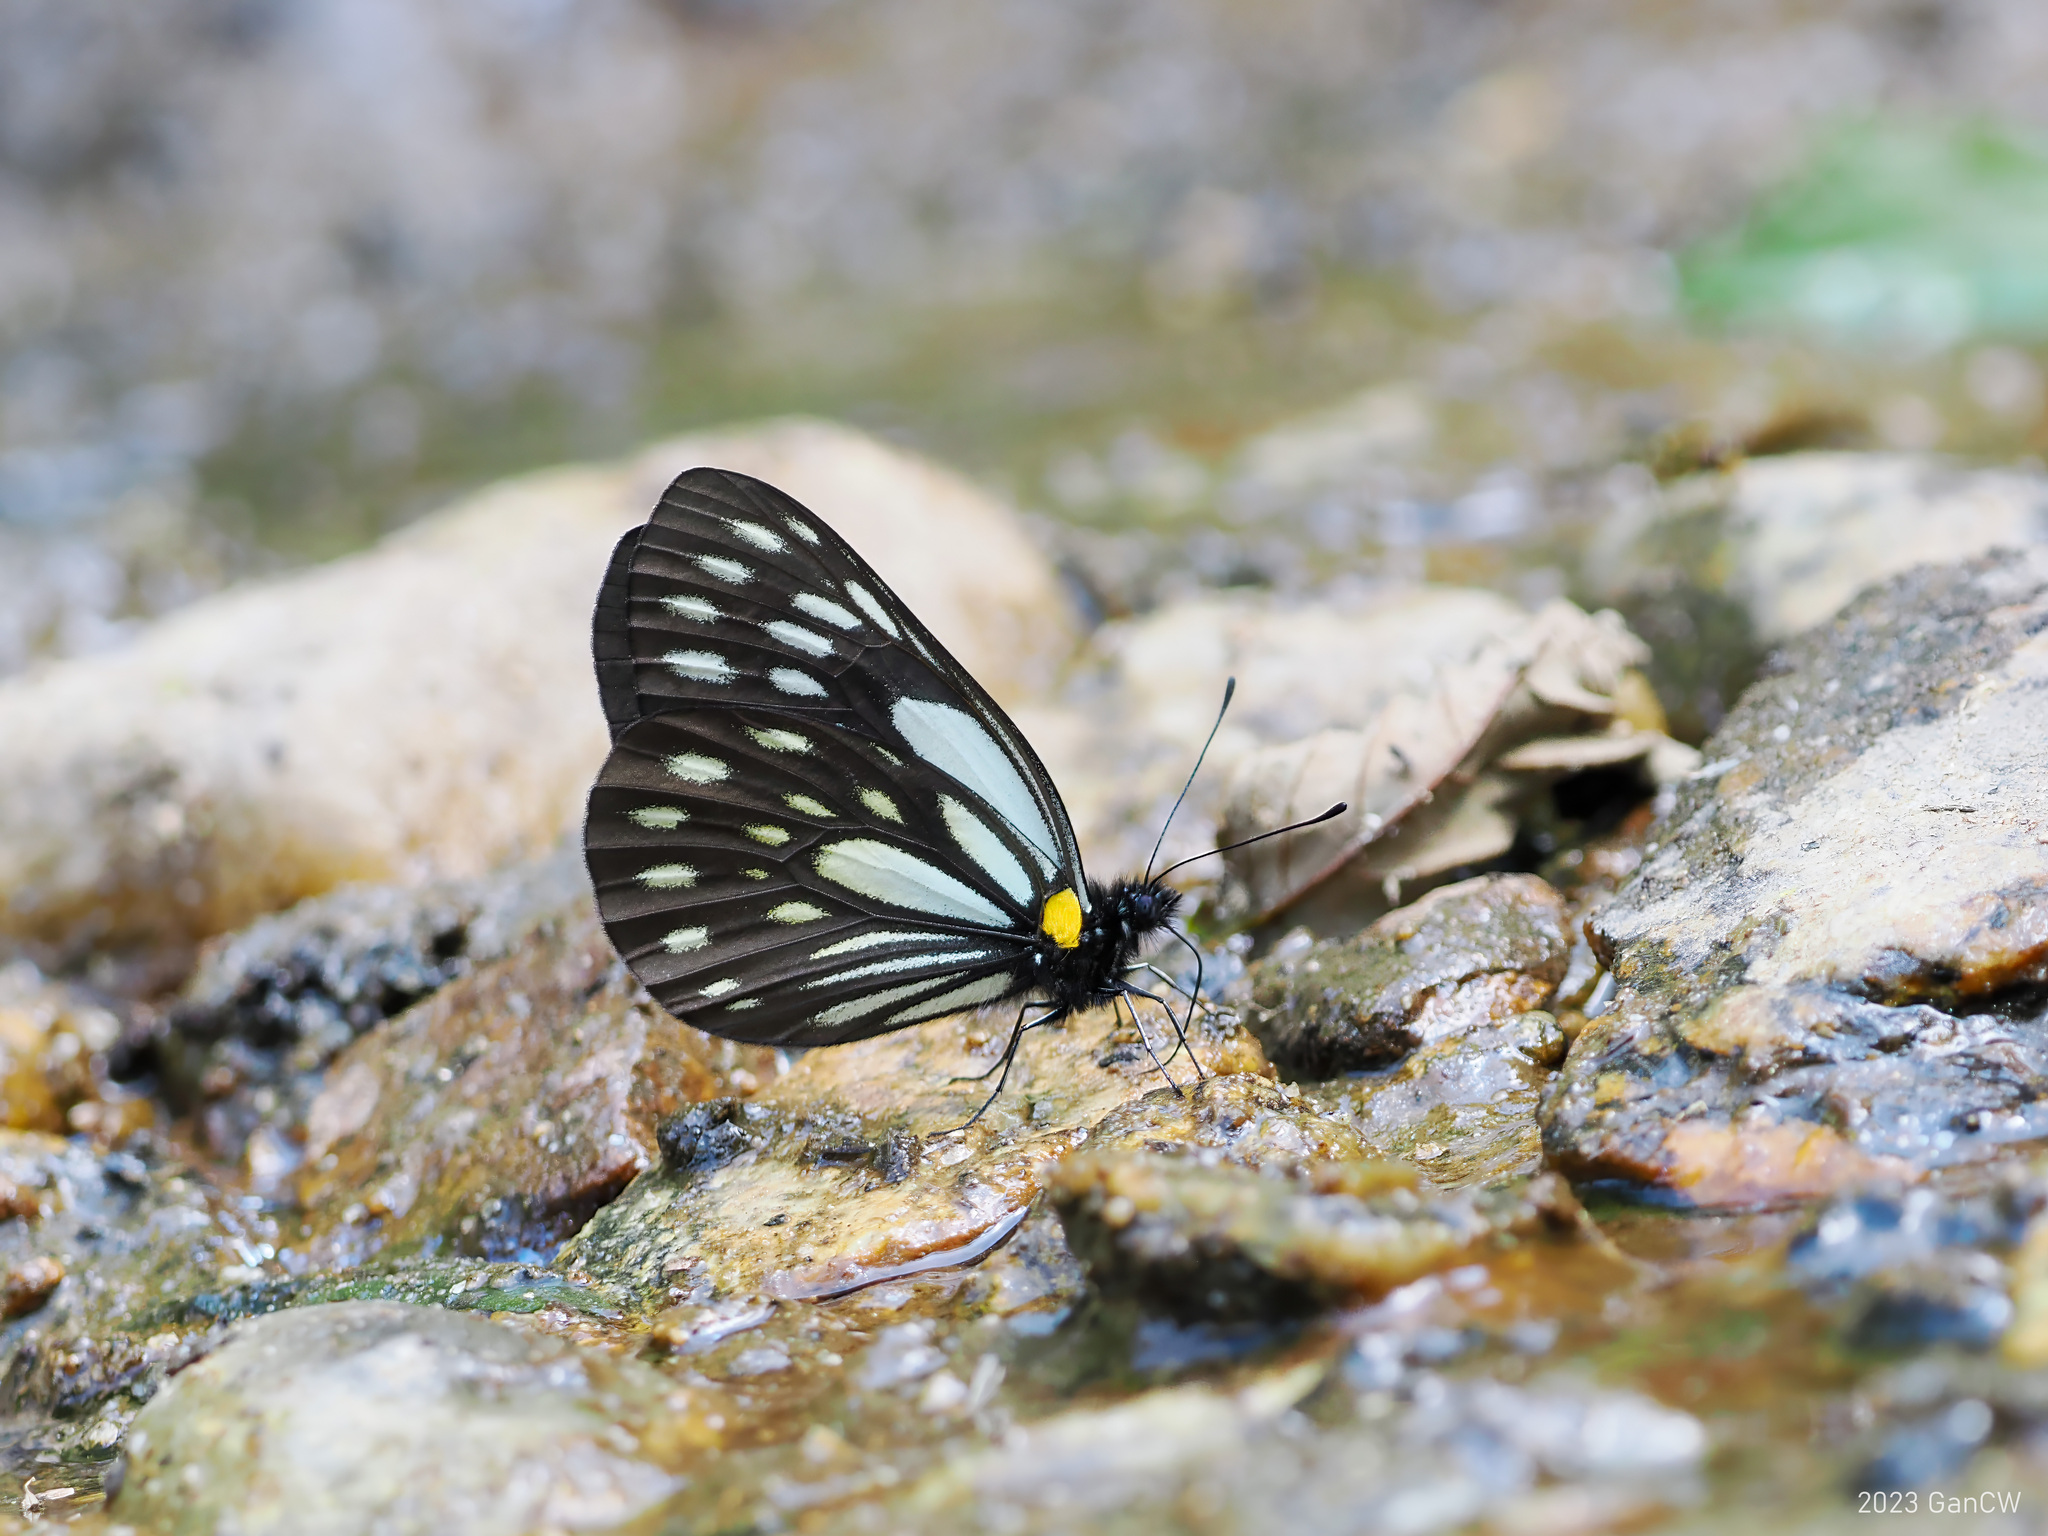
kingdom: Animalia
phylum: Arthropoda
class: Insecta
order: Lepidoptera
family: Pieridae
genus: Aporia
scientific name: Aporia agathon
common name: Great blackvein
